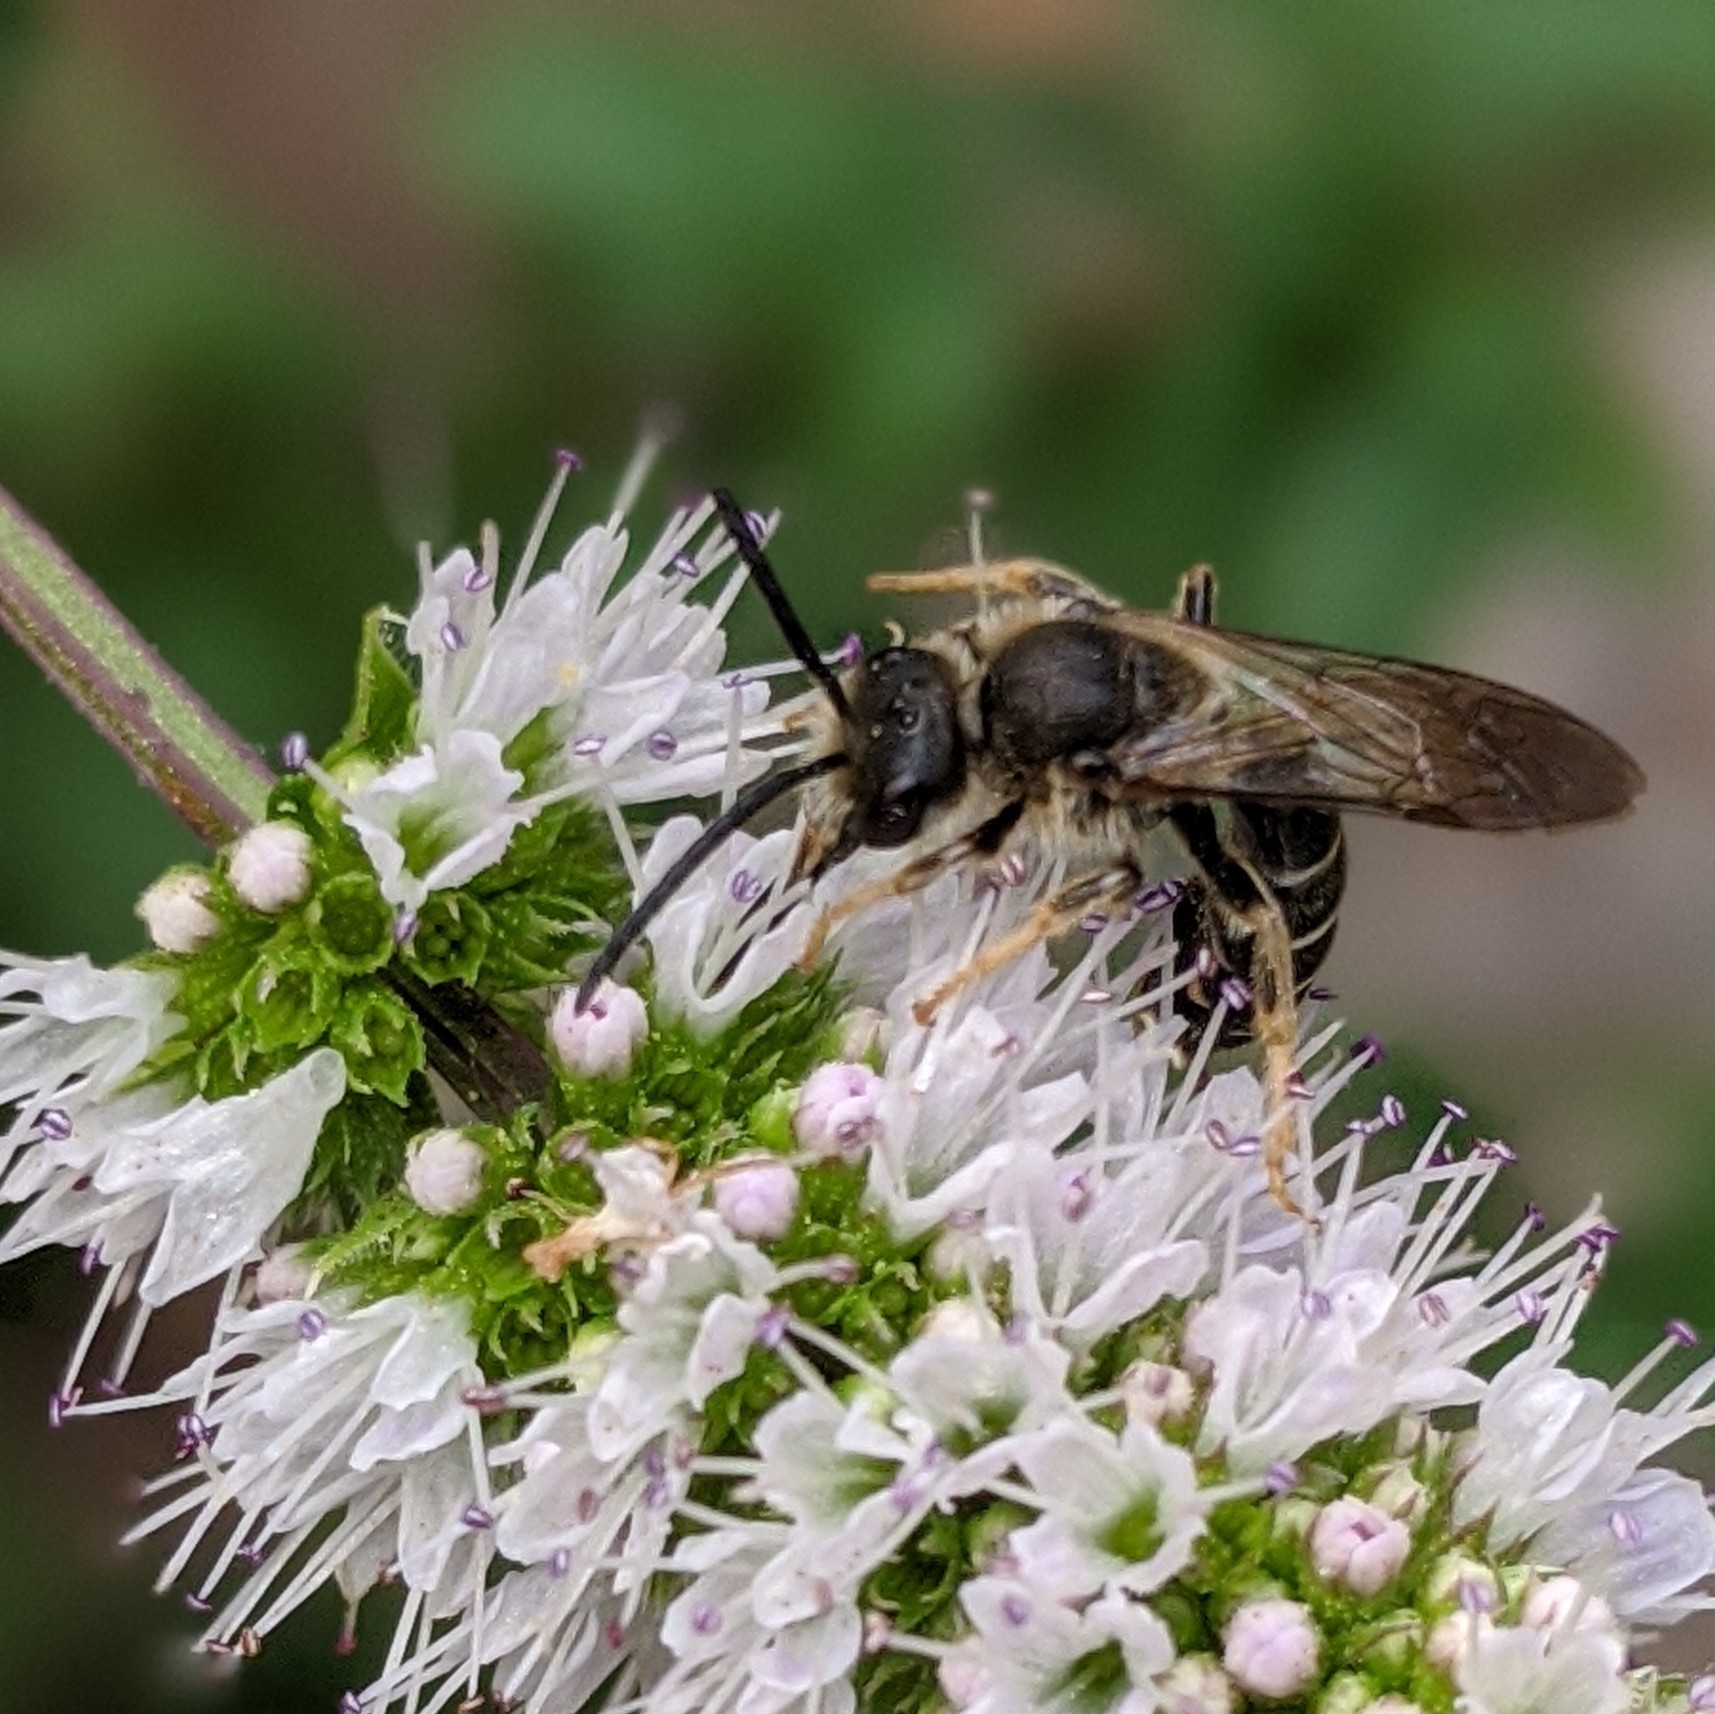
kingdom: Animalia
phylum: Arthropoda
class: Insecta
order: Hymenoptera
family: Halictidae
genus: Halictus
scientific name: Halictus rubicundus
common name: Orange-legged furrow bee
